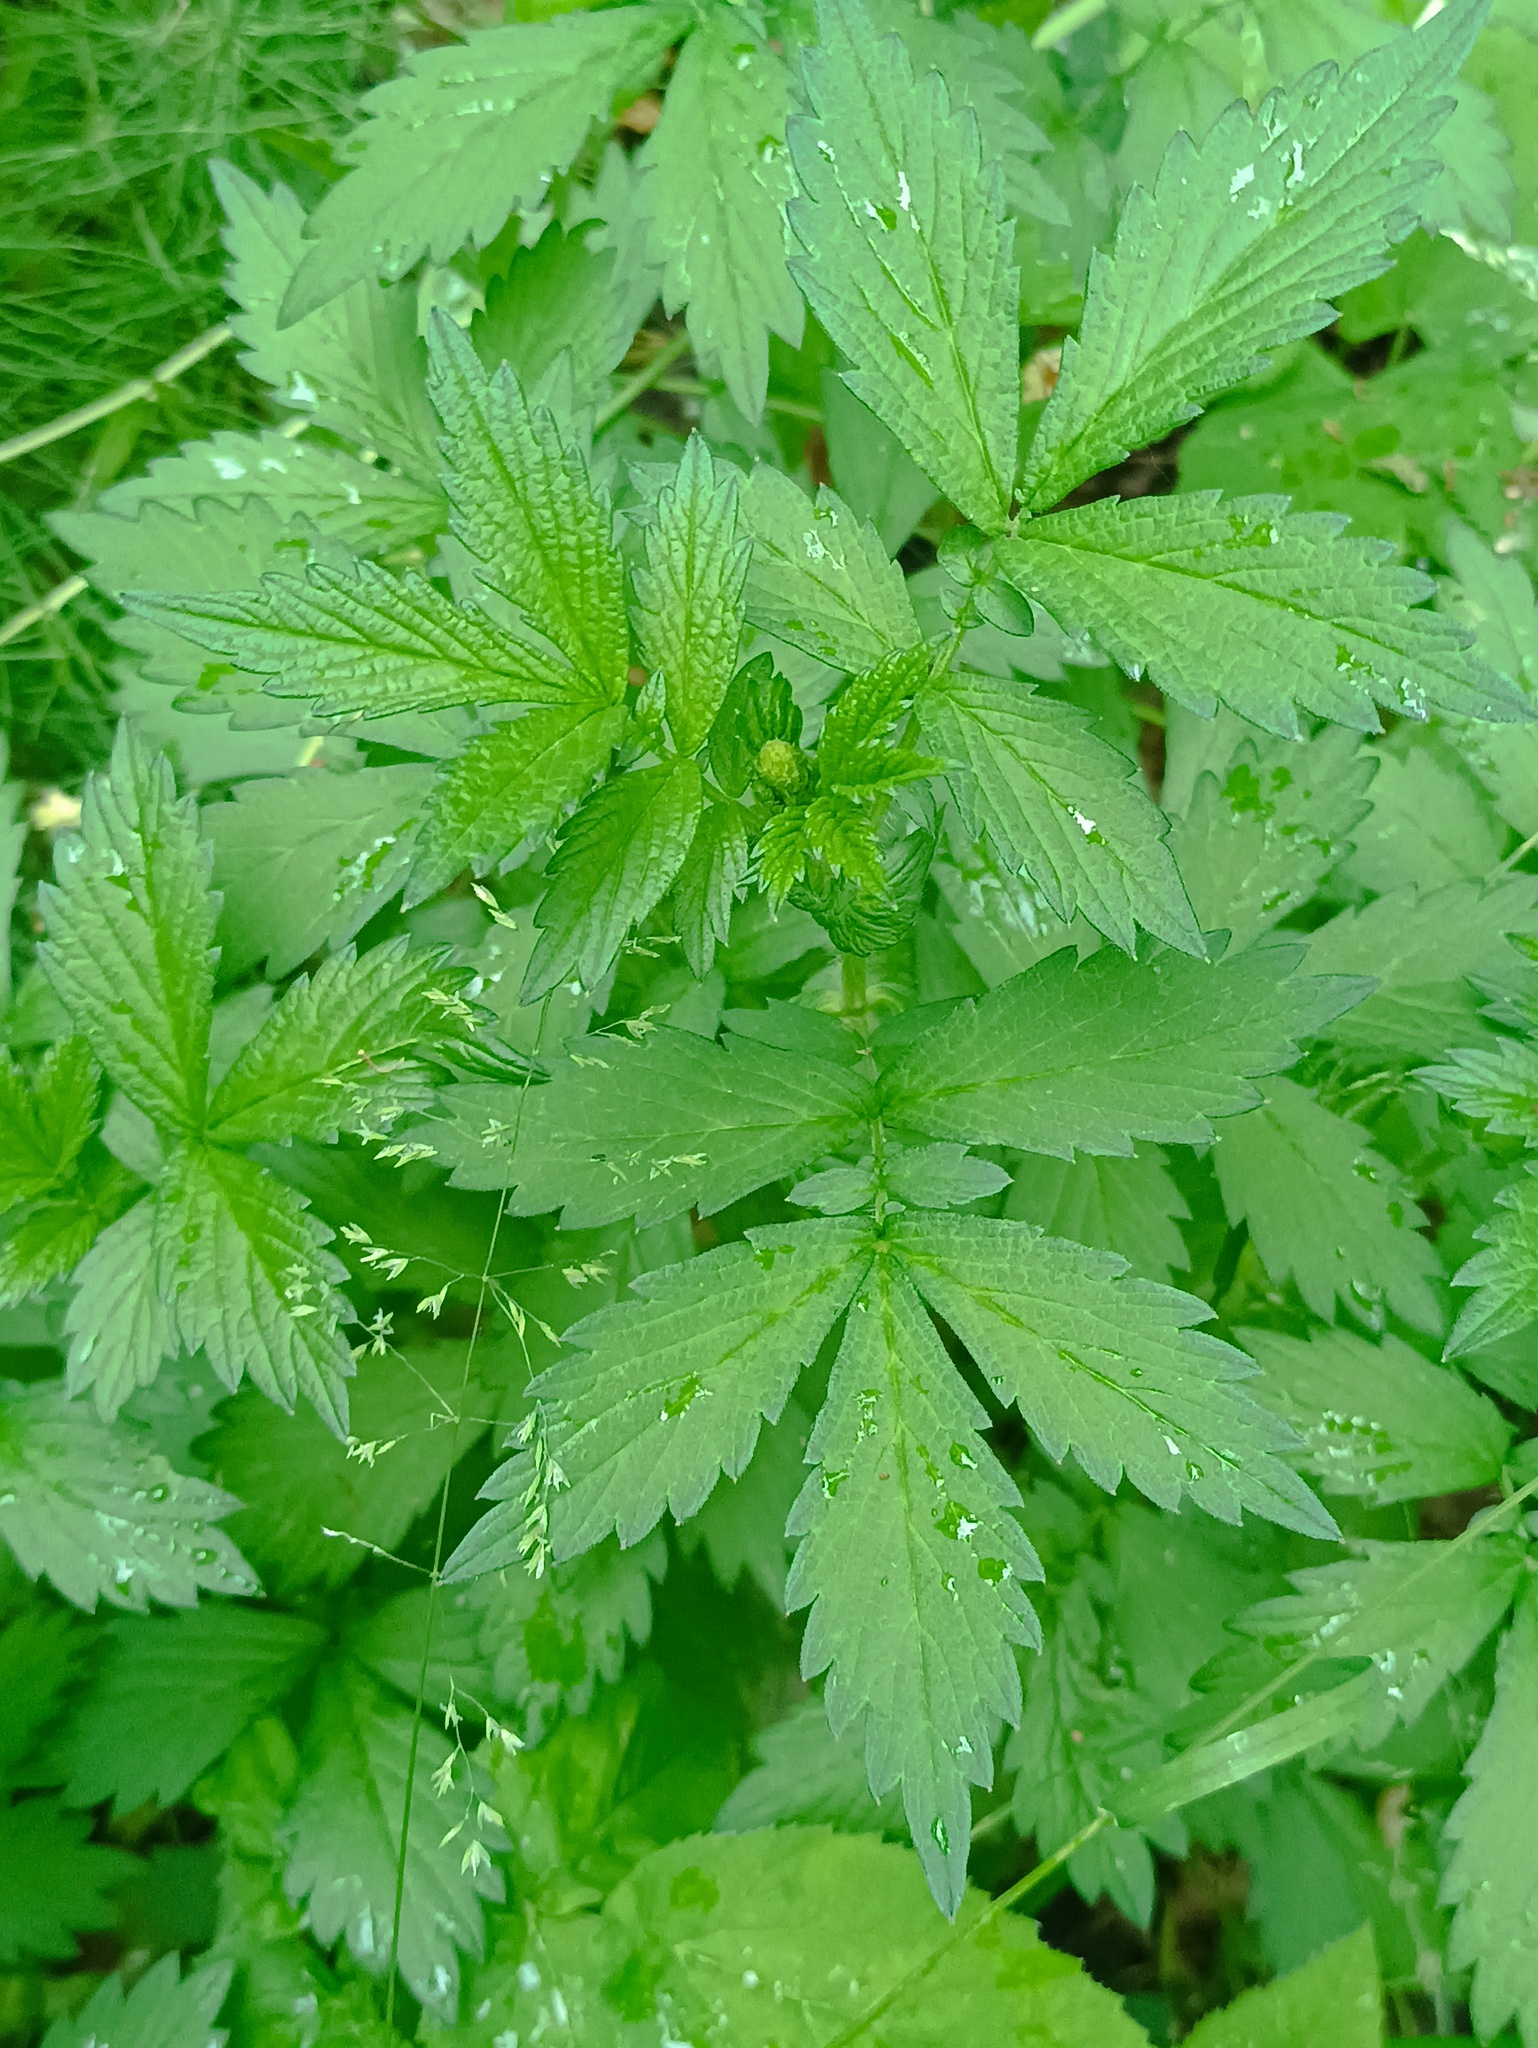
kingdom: Plantae
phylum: Tracheophyta
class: Magnoliopsida
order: Rosales
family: Rosaceae
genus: Agrimonia
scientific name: Agrimonia pilosa
